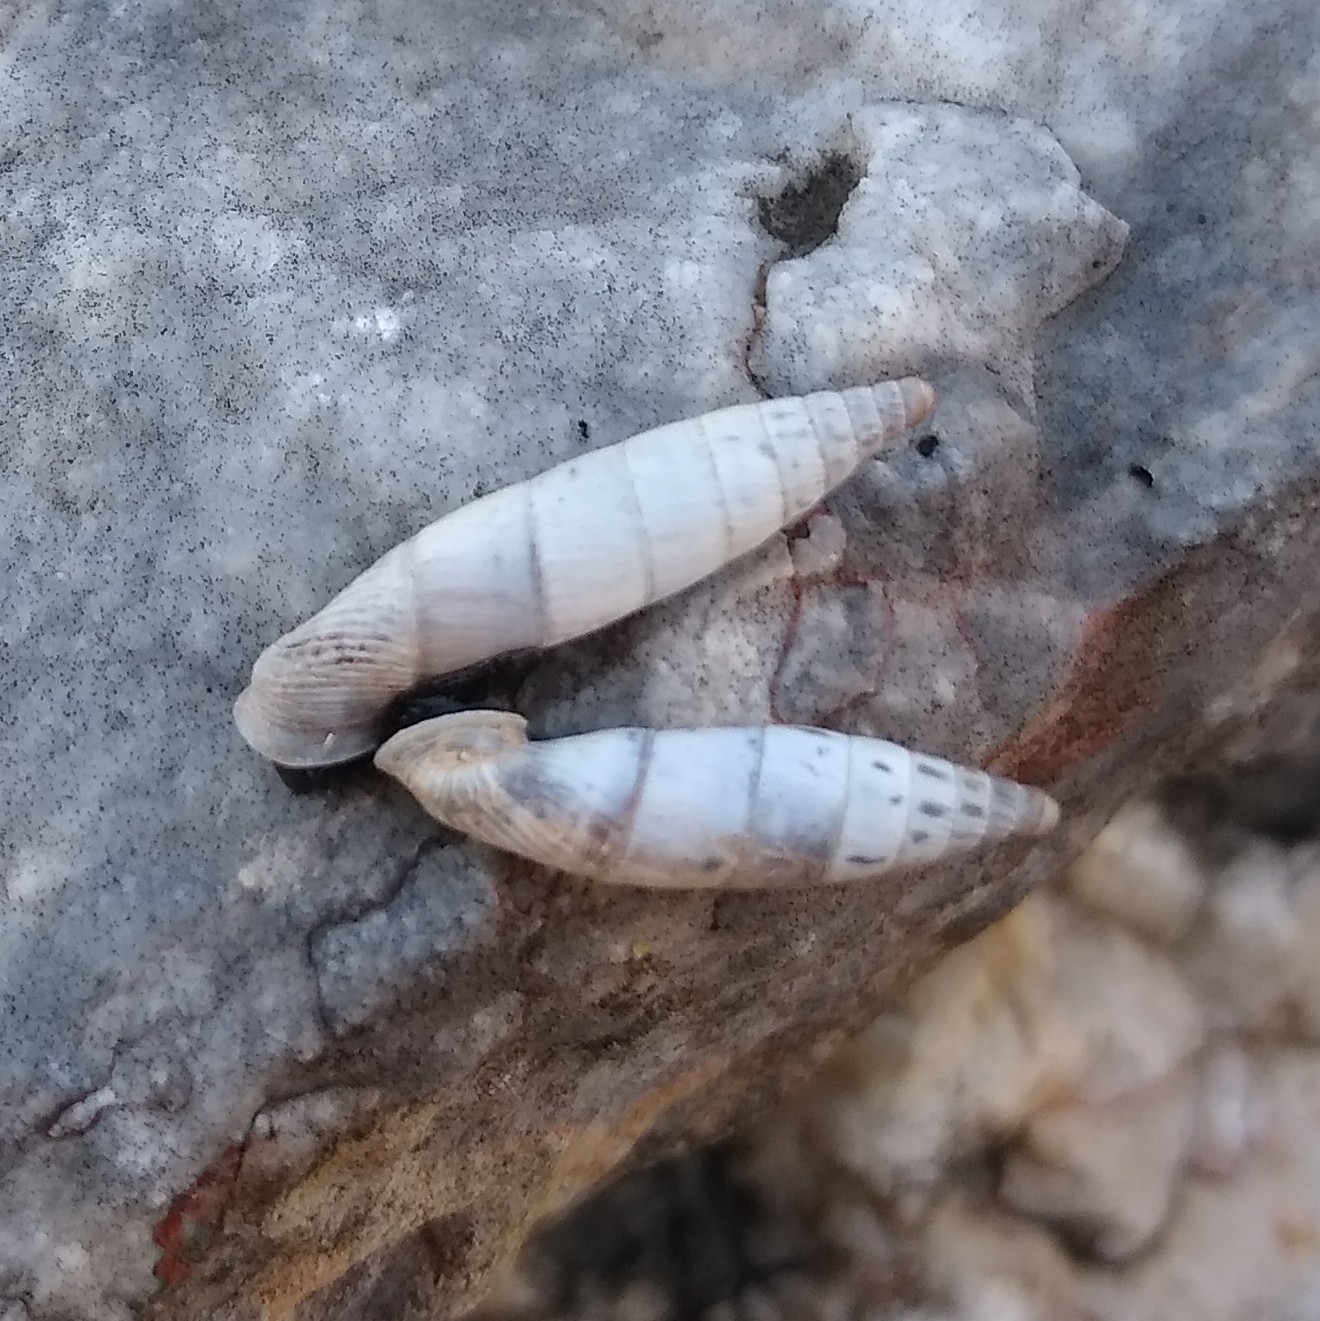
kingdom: Animalia
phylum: Mollusca
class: Gastropoda
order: Stylommatophora
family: Clausiliidae
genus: Albinaria
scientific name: Albinaria amalthea
